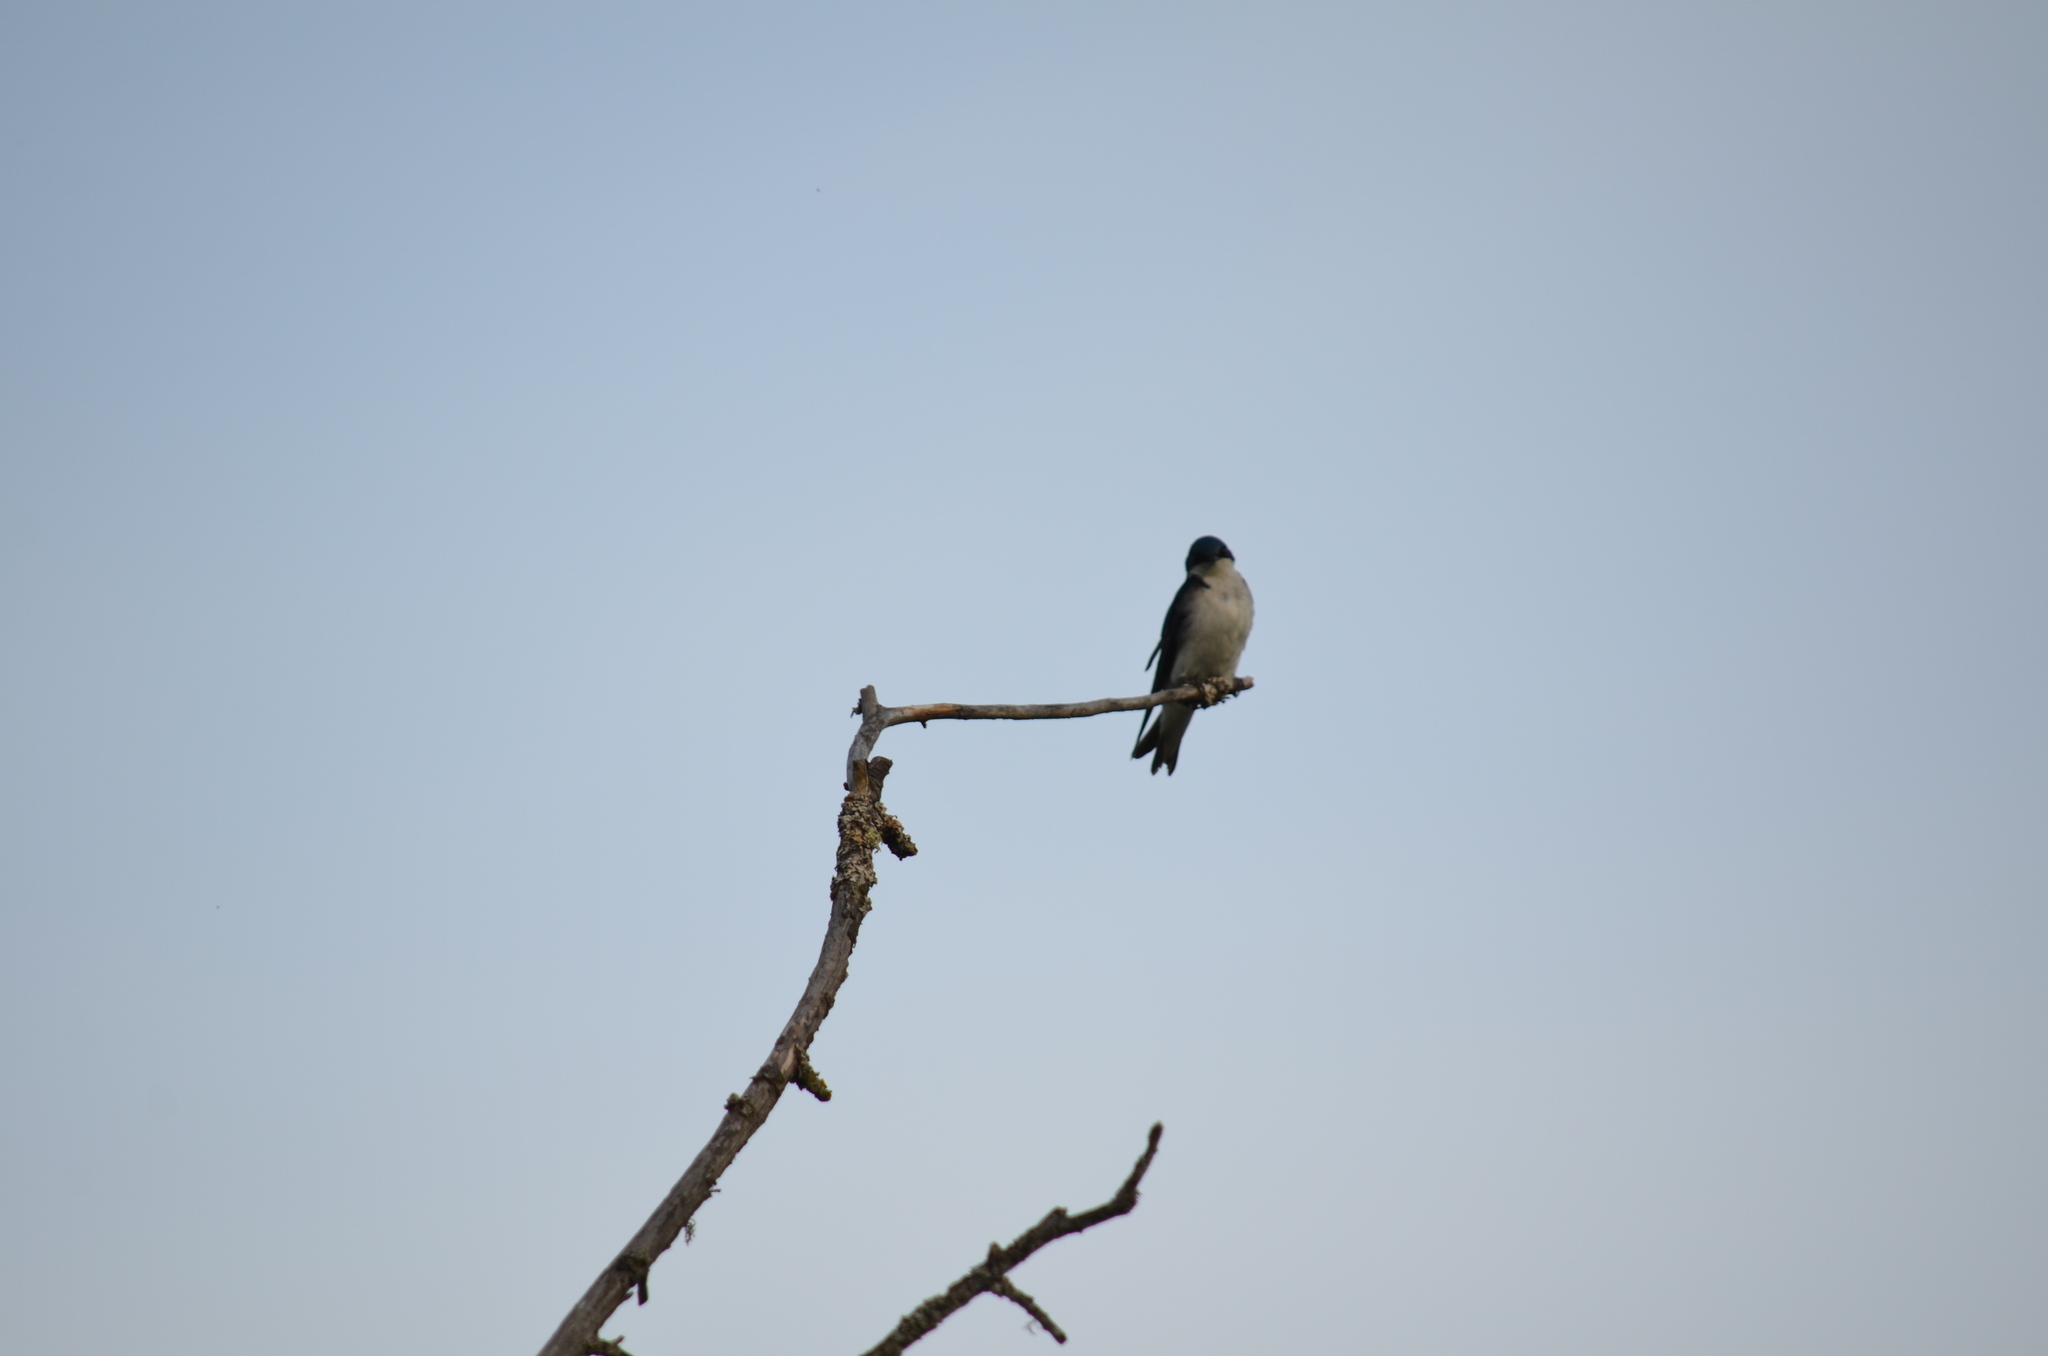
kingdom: Animalia
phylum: Chordata
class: Aves
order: Passeriformes
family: Hirundinidae
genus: Tachycineta
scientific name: Tachycineta bicolor
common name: Tree swallow
